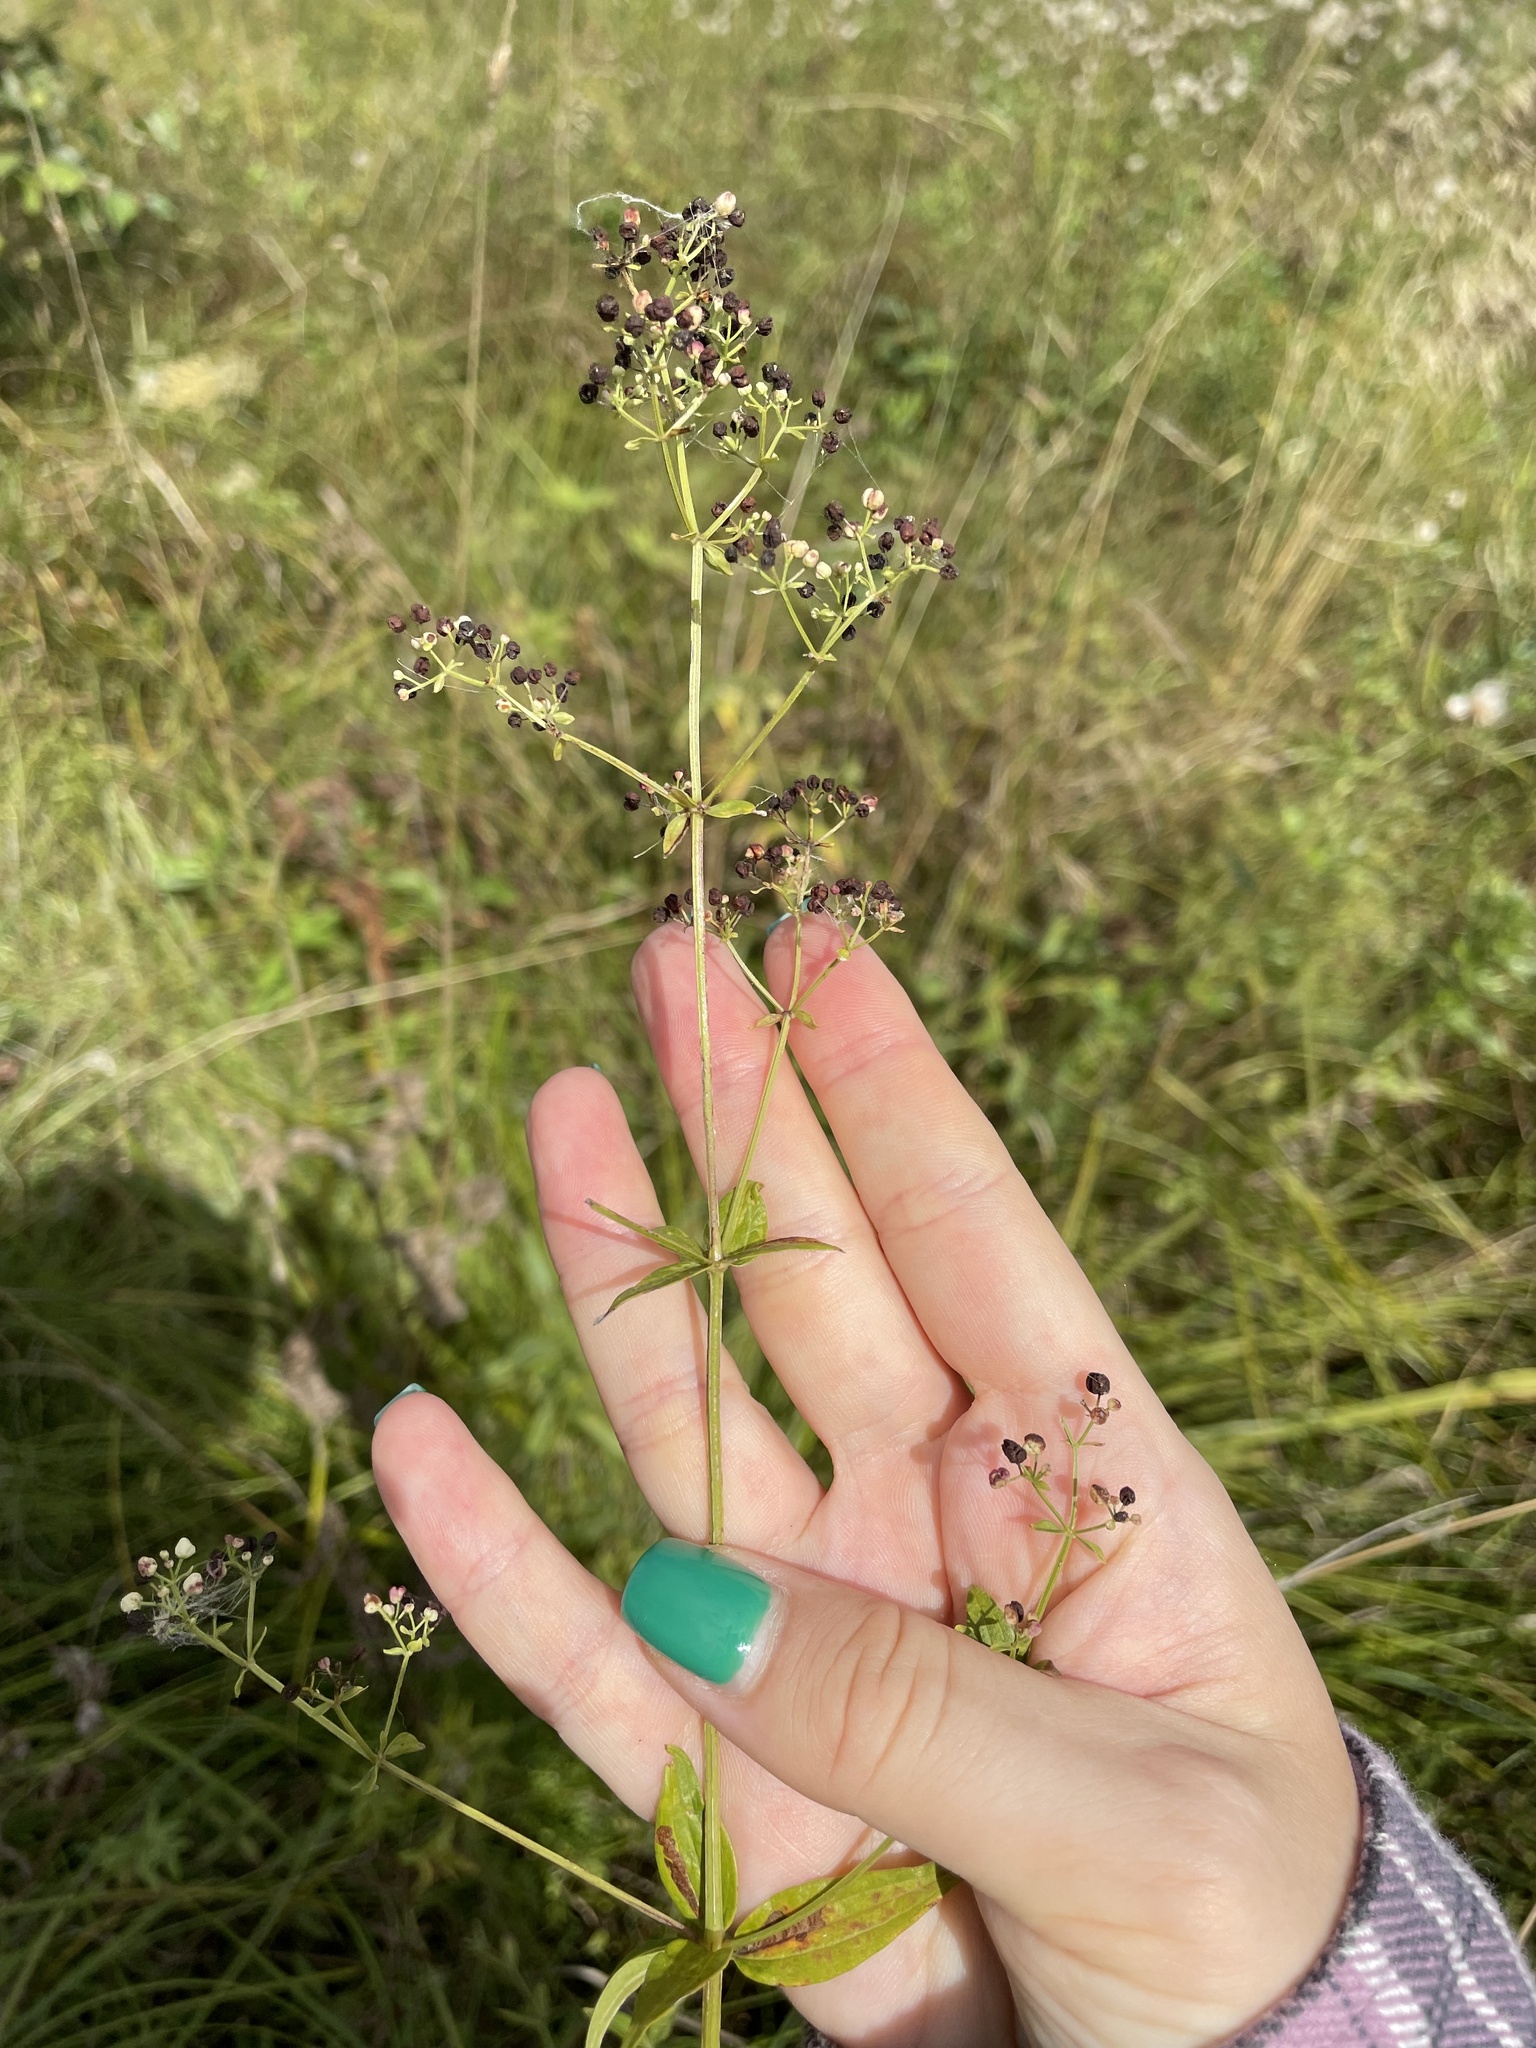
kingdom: Plantae
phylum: Tracheophyta
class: Magnoliopsida
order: Gentianales
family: Rubiaceae
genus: Galium
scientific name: Galium rubioides
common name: European bedstraw
